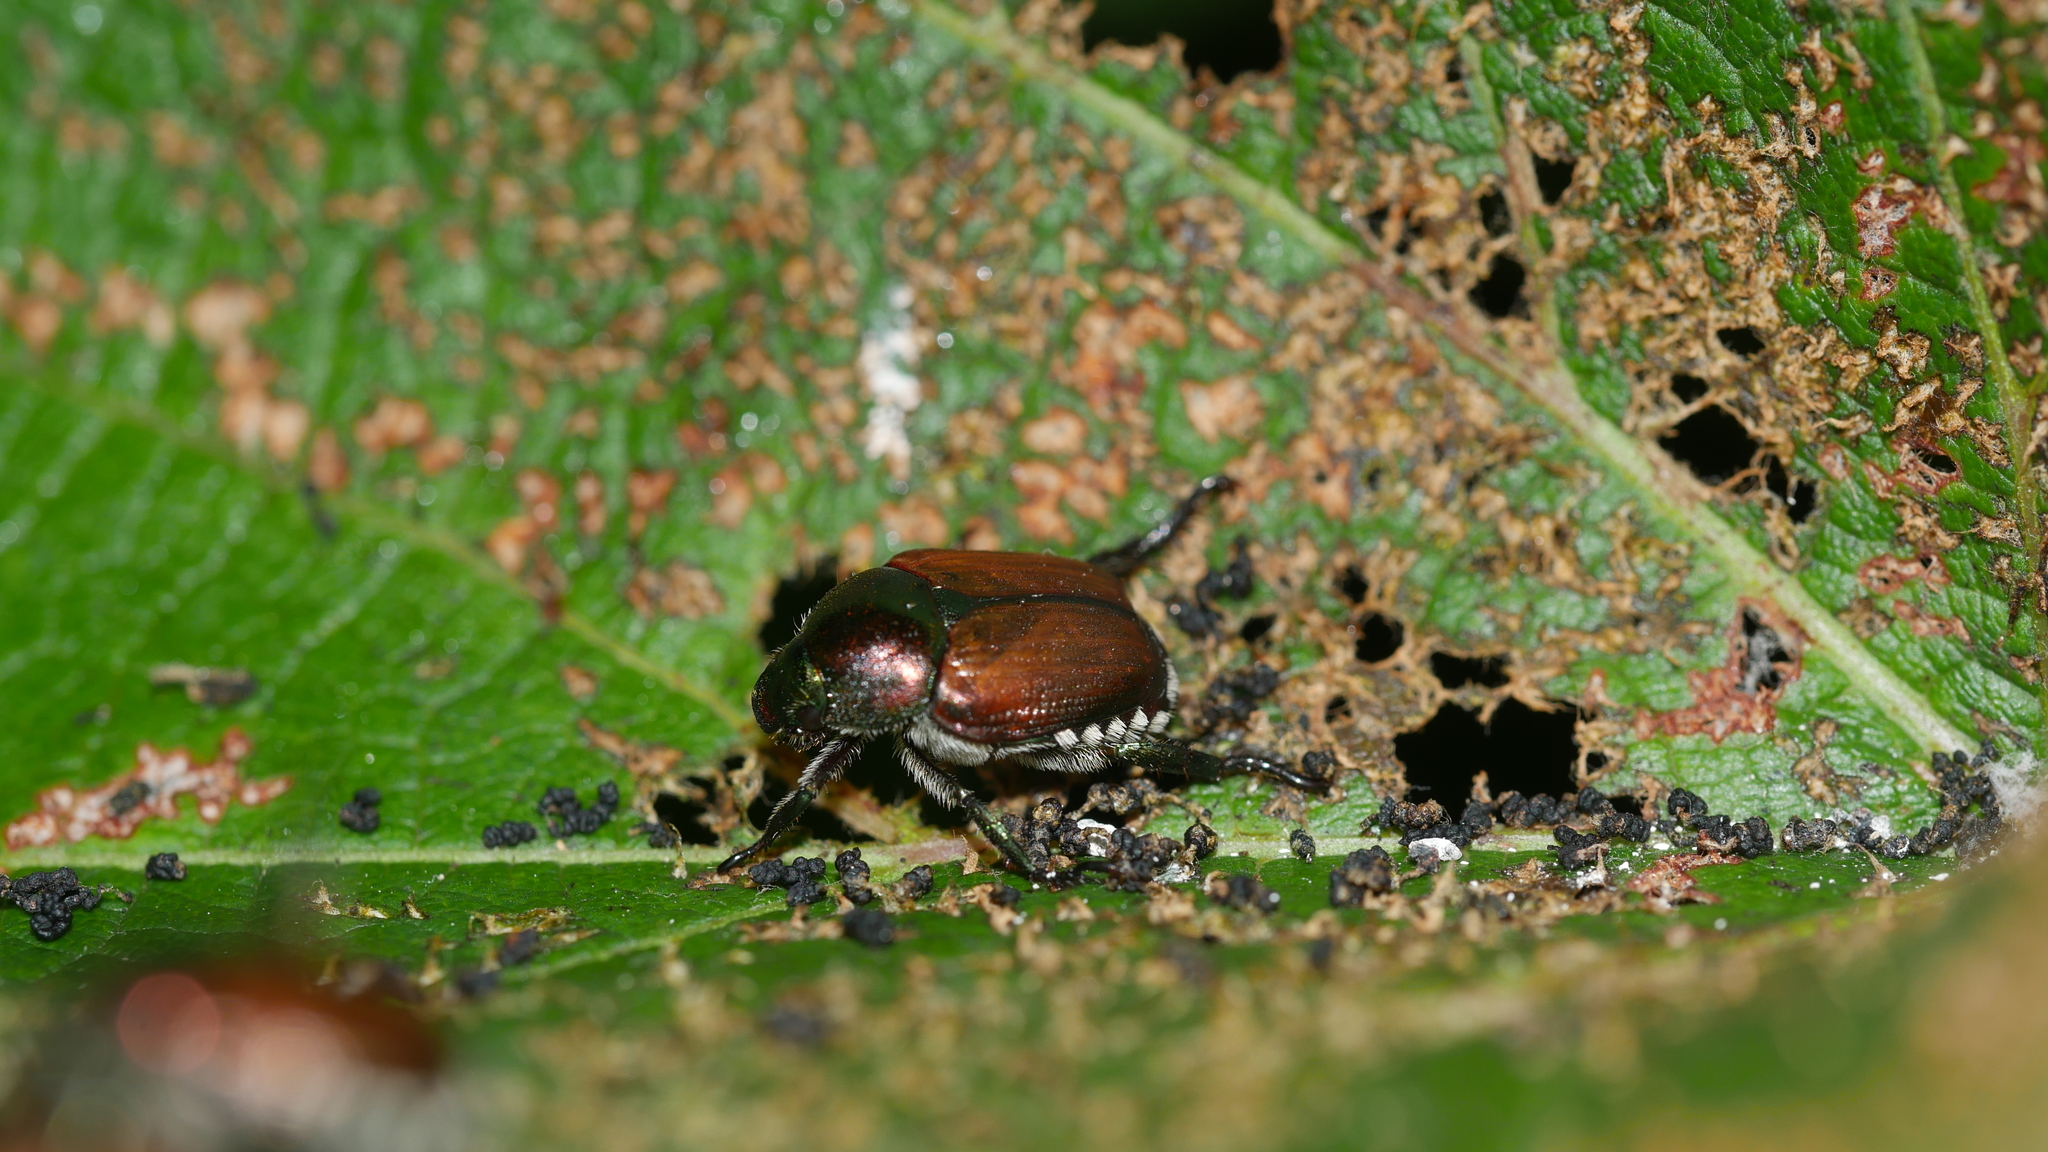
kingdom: Animalia
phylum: Arthropoda
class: Insecta
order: Coleoptera
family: Scarabaeidae
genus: Popillia
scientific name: Popillia japonica
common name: Japanese beetle
